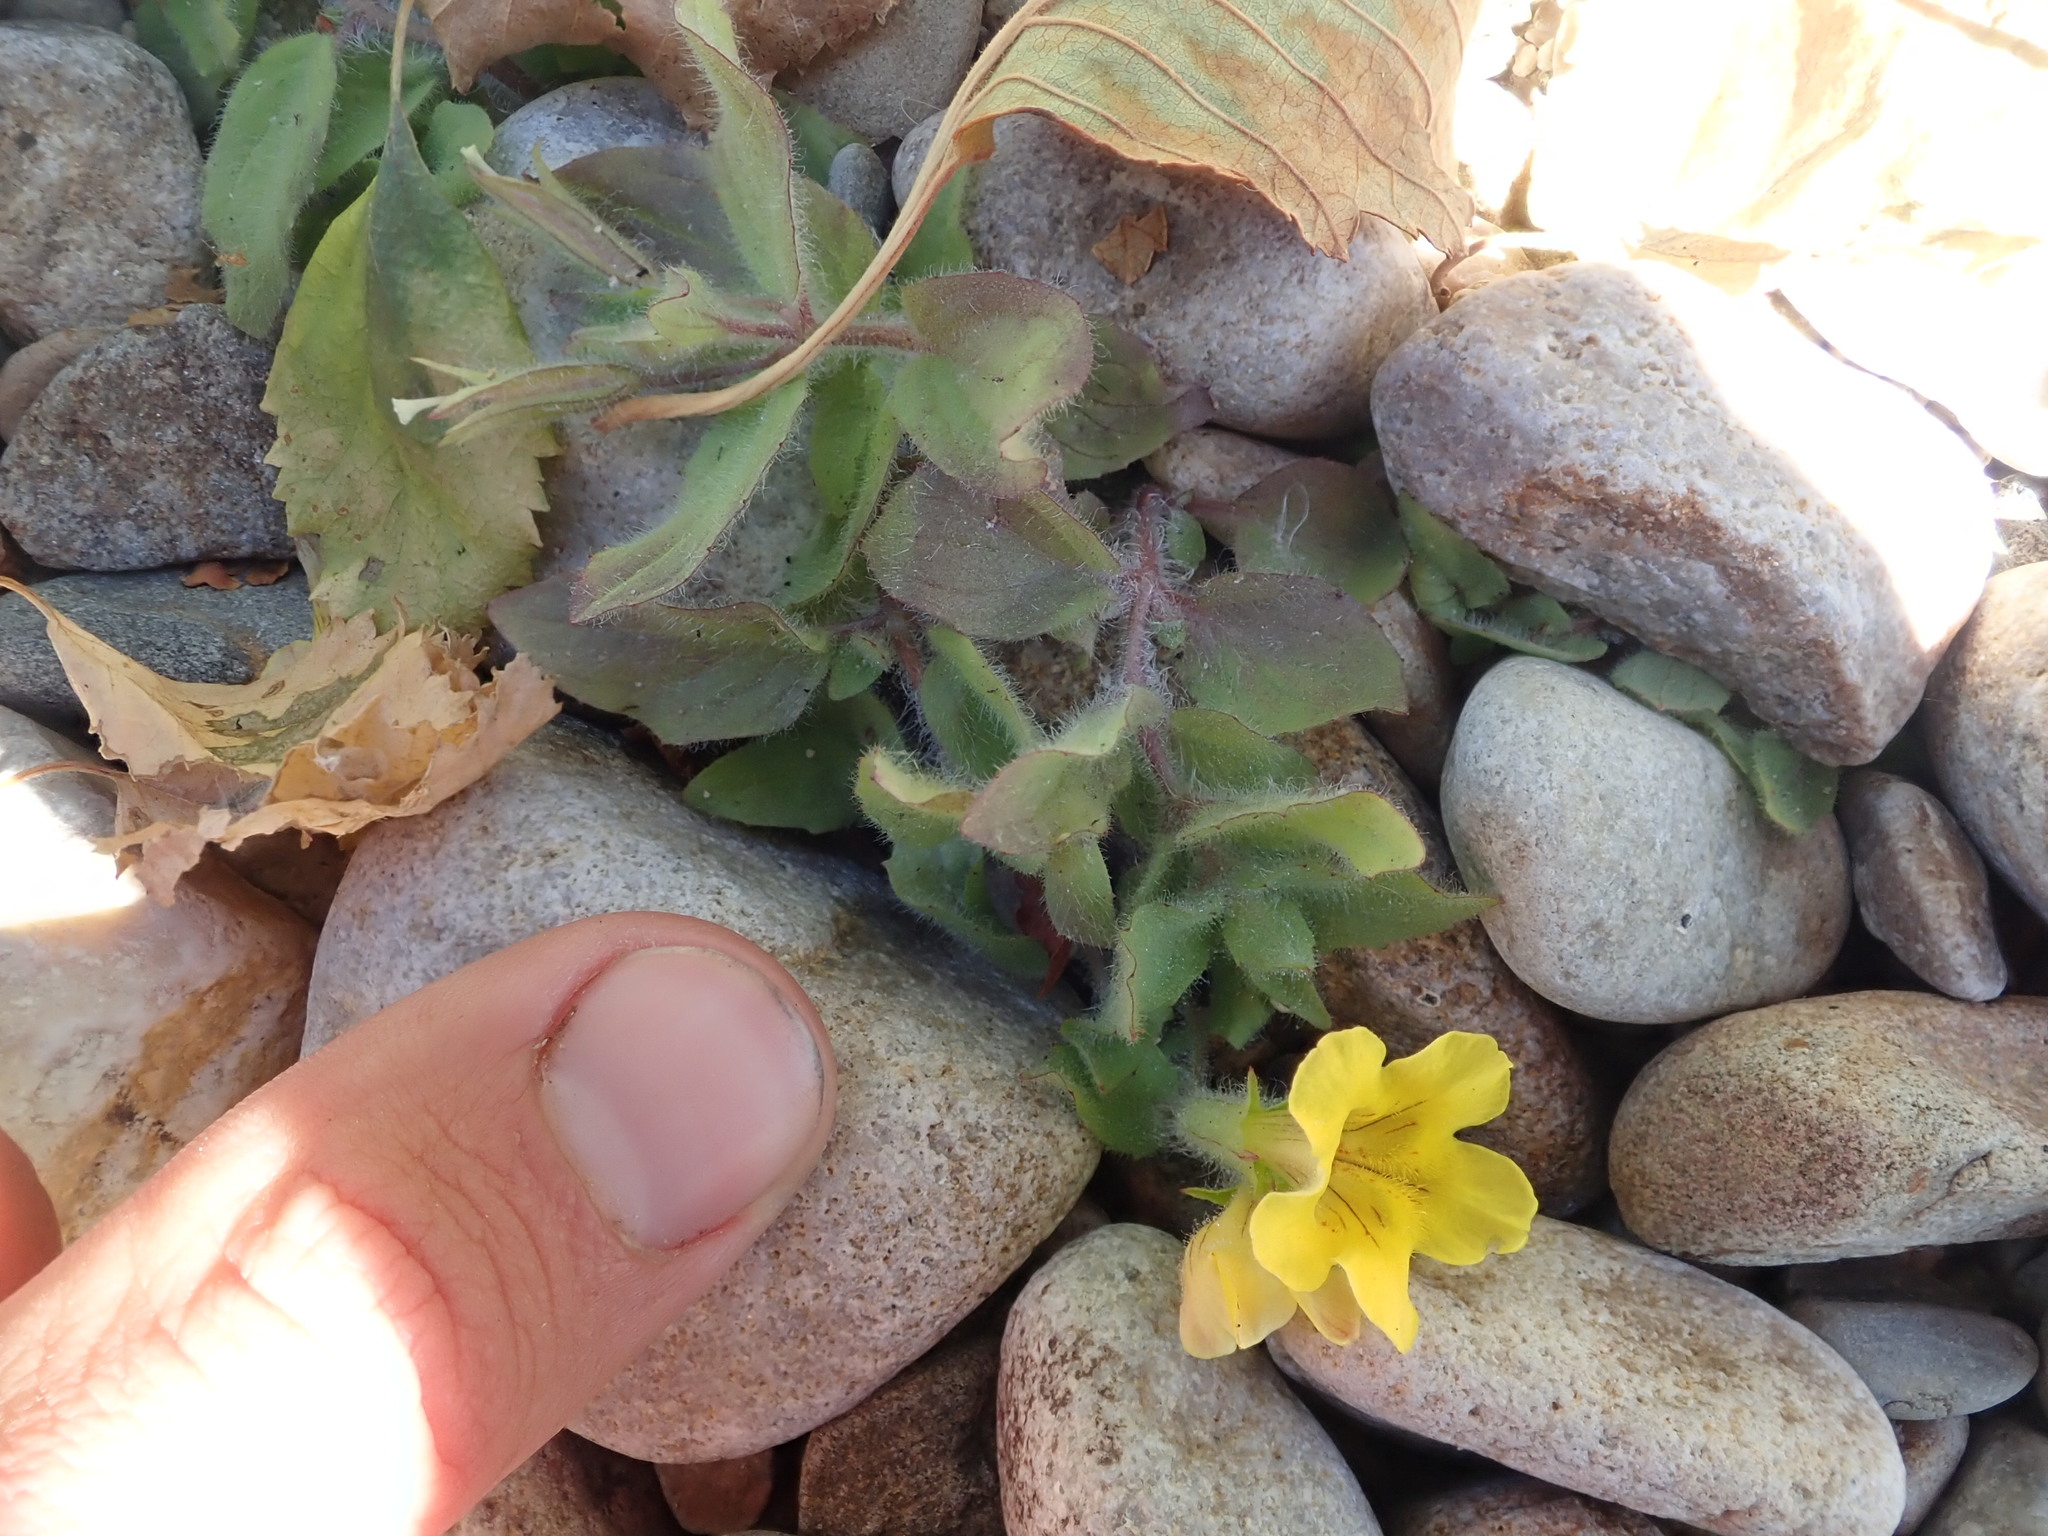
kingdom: Plantae
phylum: Tracheophyta
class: Magnoliopsida
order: Lamiales
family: Phrymaceae
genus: Erythranthe
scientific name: Erythranthe moschata
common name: Muskflower
